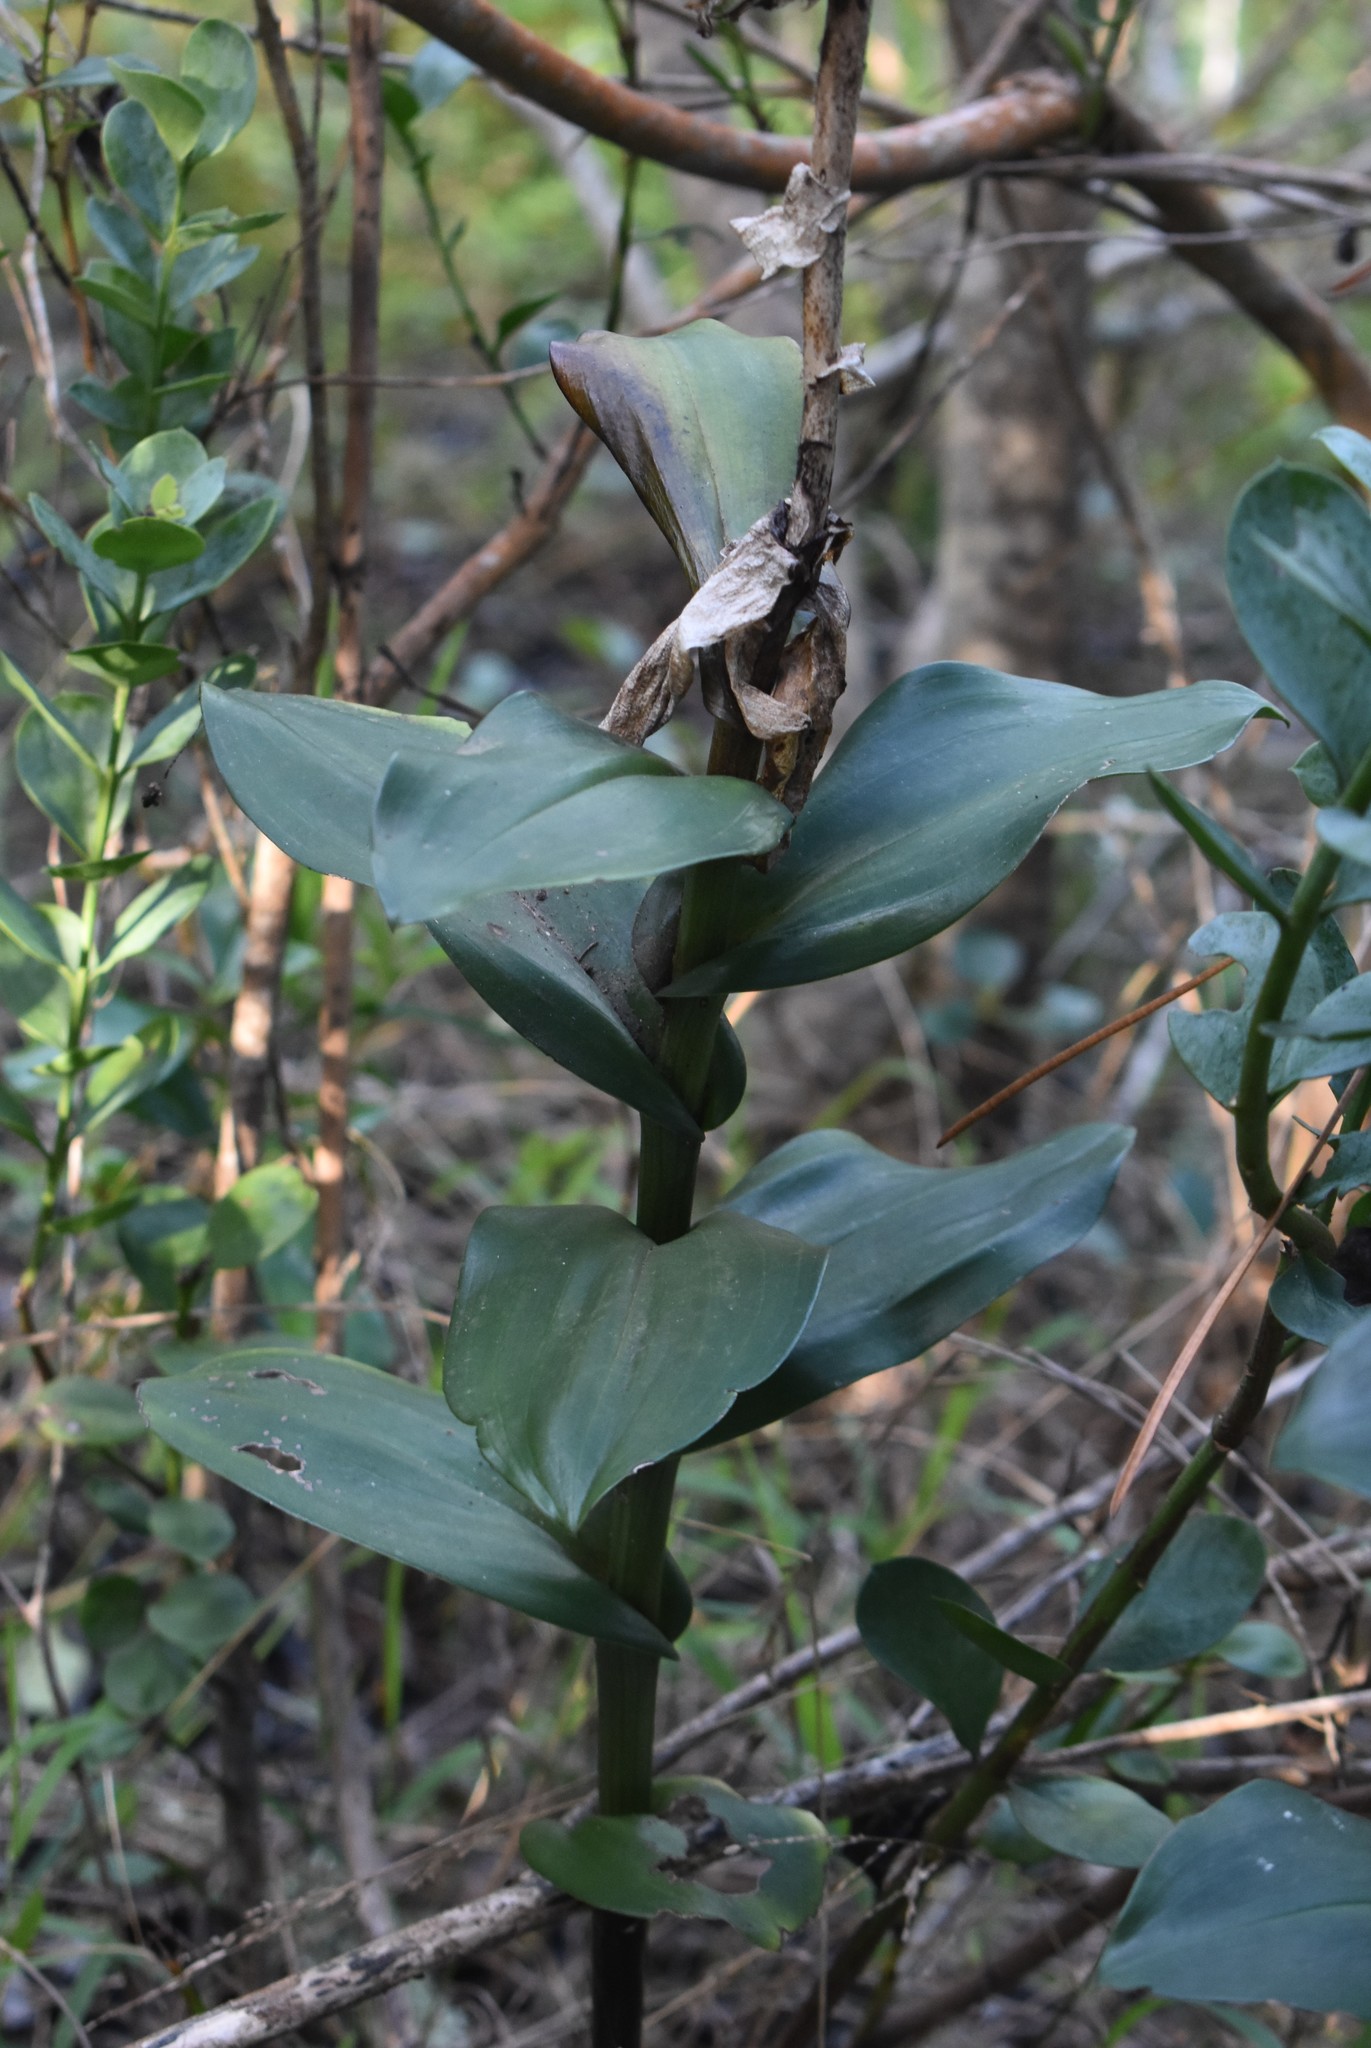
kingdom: Plantae
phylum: Tracheophyta
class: Liliopsida
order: Asparagales
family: Orchidaceae
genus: Bonatea
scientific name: Bonatea speciosa
